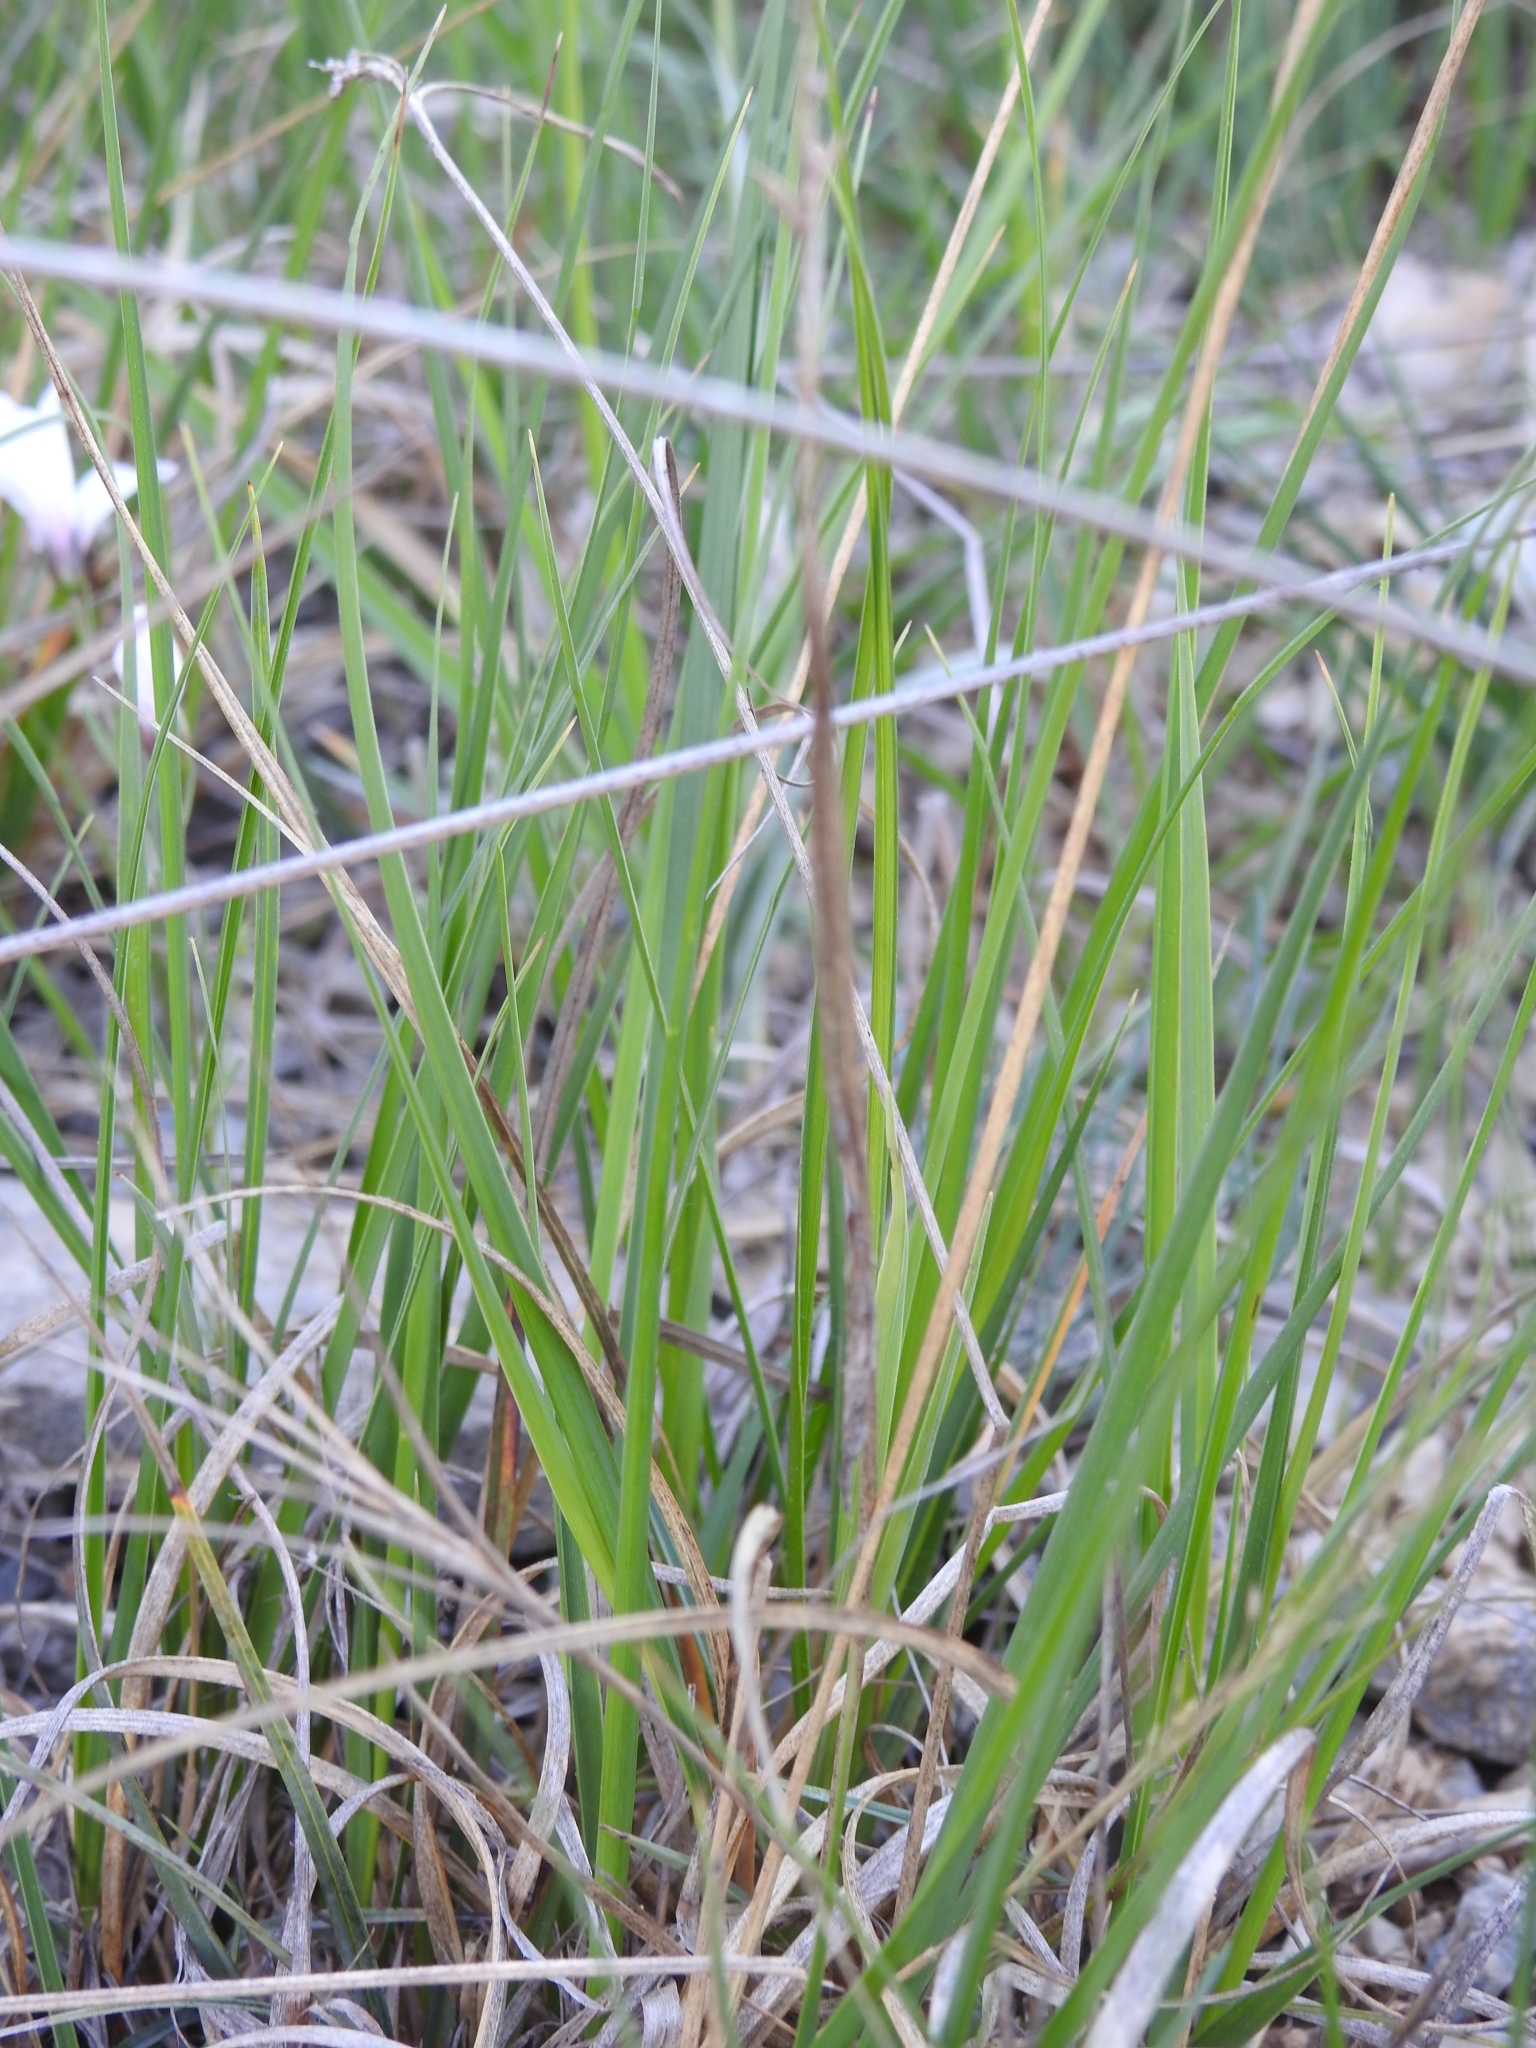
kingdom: Plantae
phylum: Tracheophyta
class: Liliopsida
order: Poales
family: Cyperaceae
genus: Carex
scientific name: Carex panicea
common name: Carnation sedge
